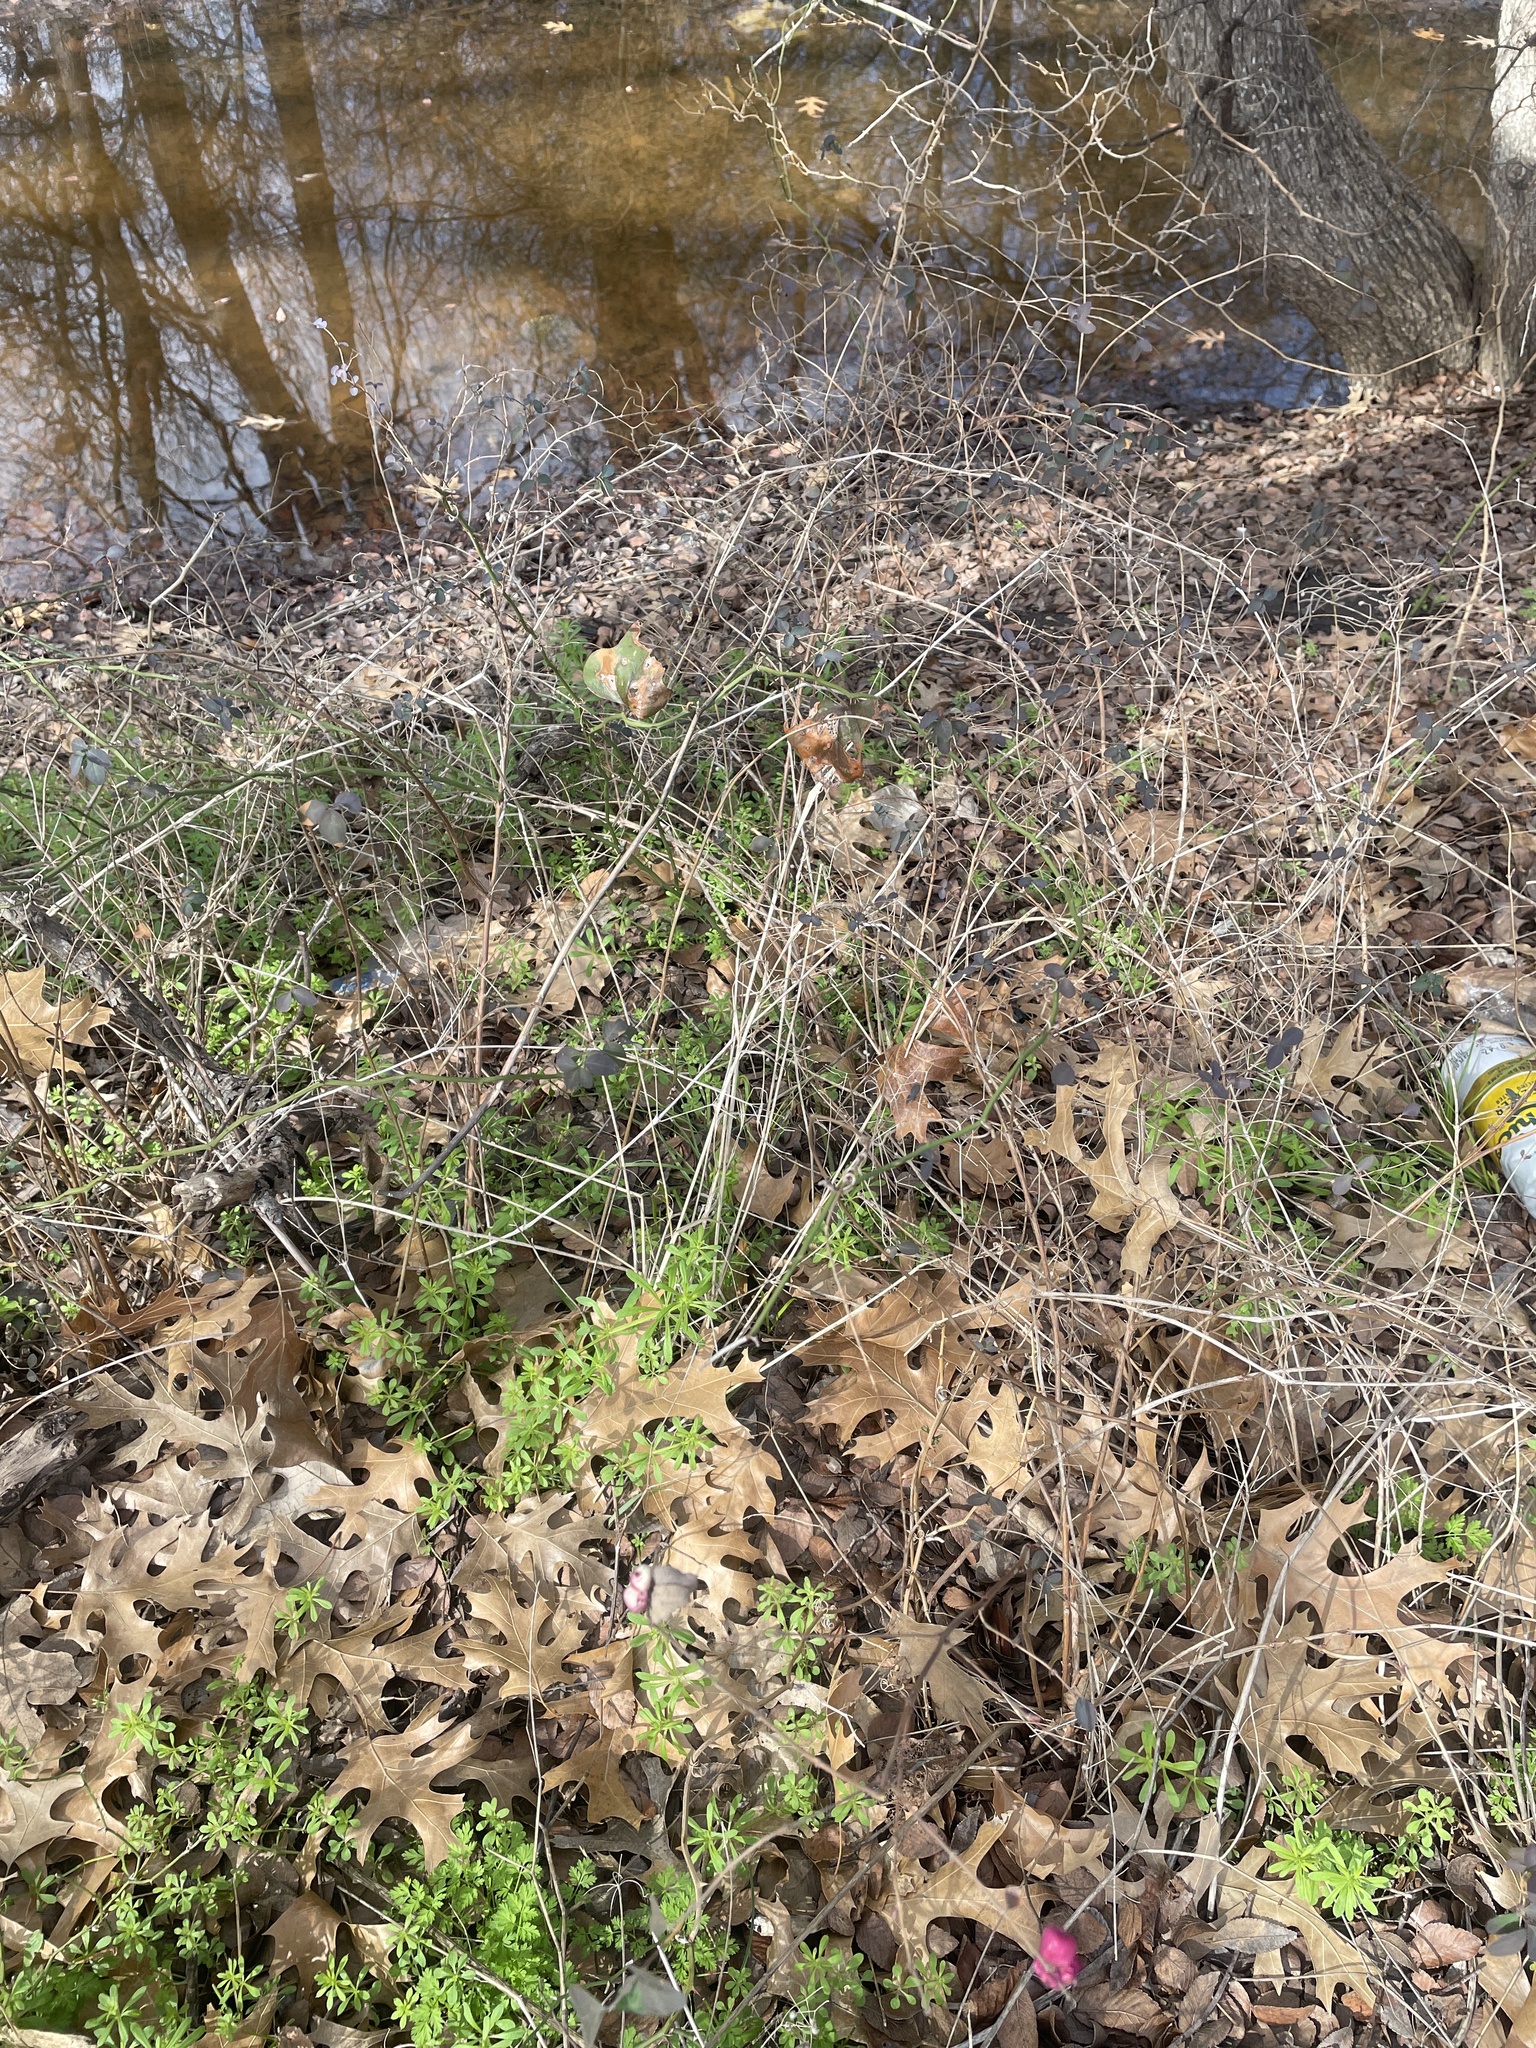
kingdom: Plantae
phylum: Tracheophyta
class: Magnoliopsida
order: Dipsacales
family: Caprifoliaceae
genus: Symphoricarpos
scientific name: Symphoricarpos orbiculatus
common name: Coralberry
